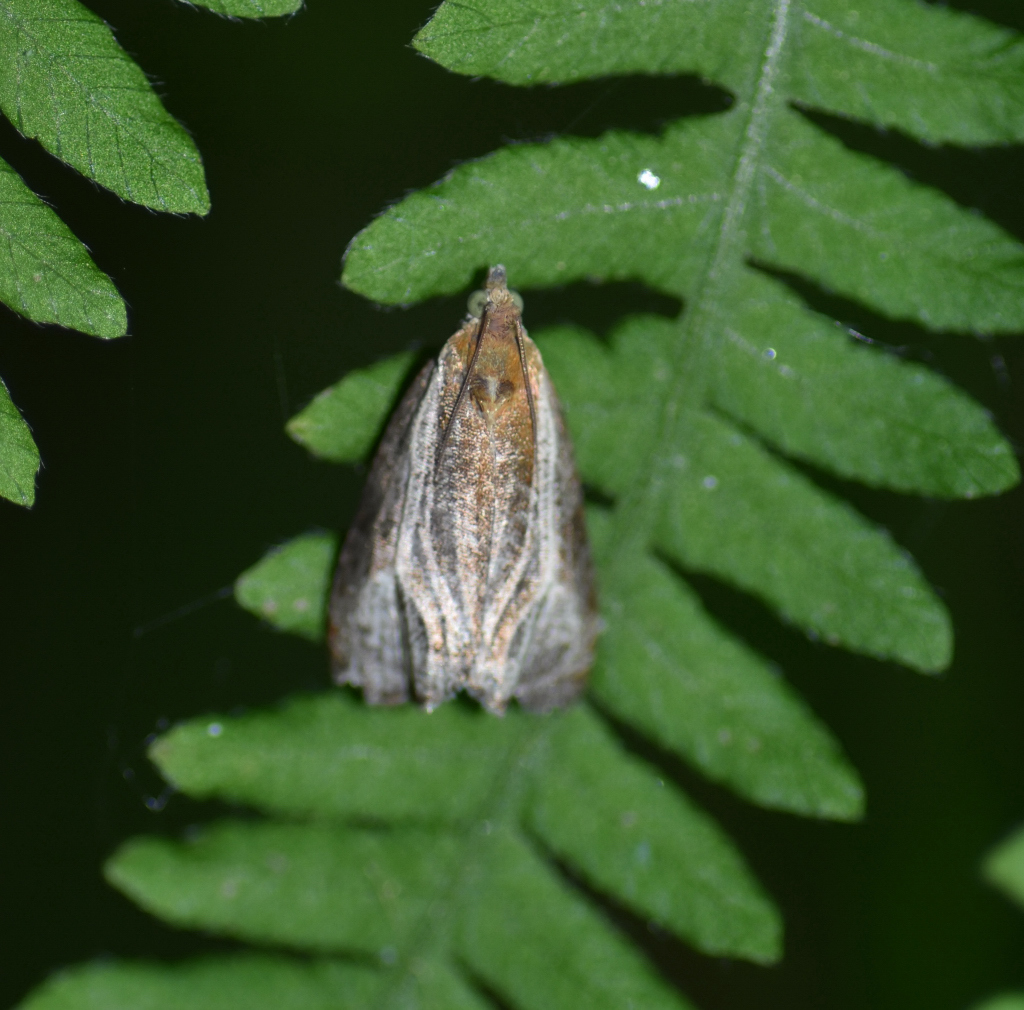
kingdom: Animalia
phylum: Arthropoda
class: Insecta
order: Lepidoptera
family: Tortricidae
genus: Olethreutes
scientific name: Olethreutes quadrifidum
